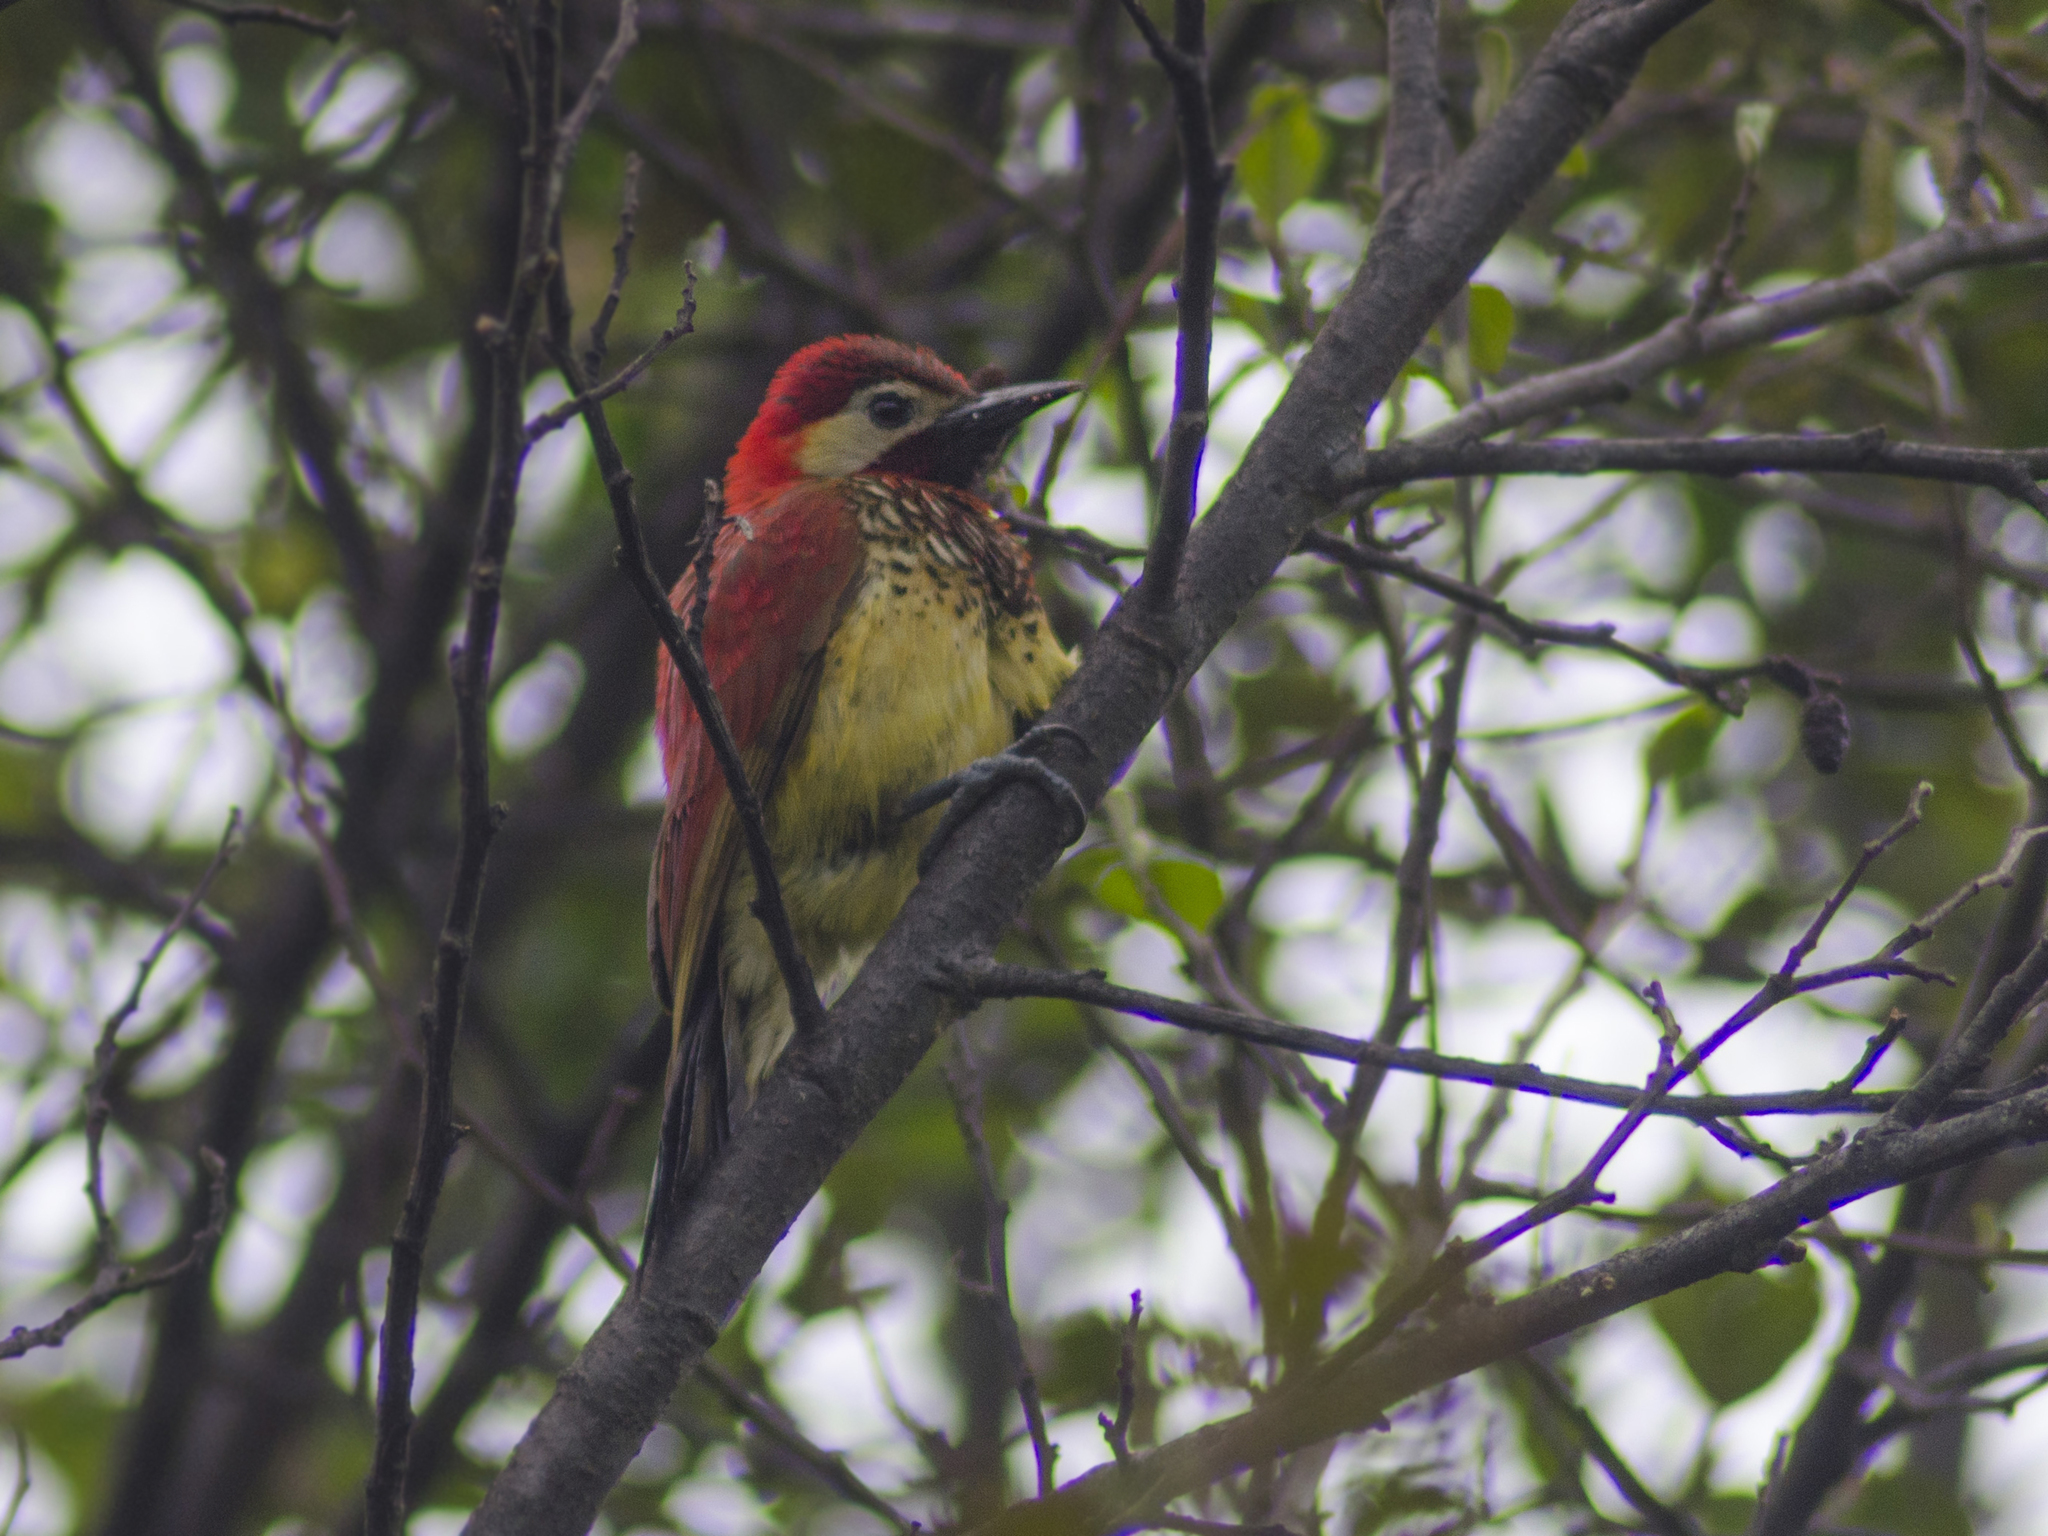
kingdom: Animalia
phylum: Chordata
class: Aves
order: Piciformes
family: Picidae
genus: Colaptes
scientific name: Colaptes rivolii
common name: Crimson-mantled woodpecker
